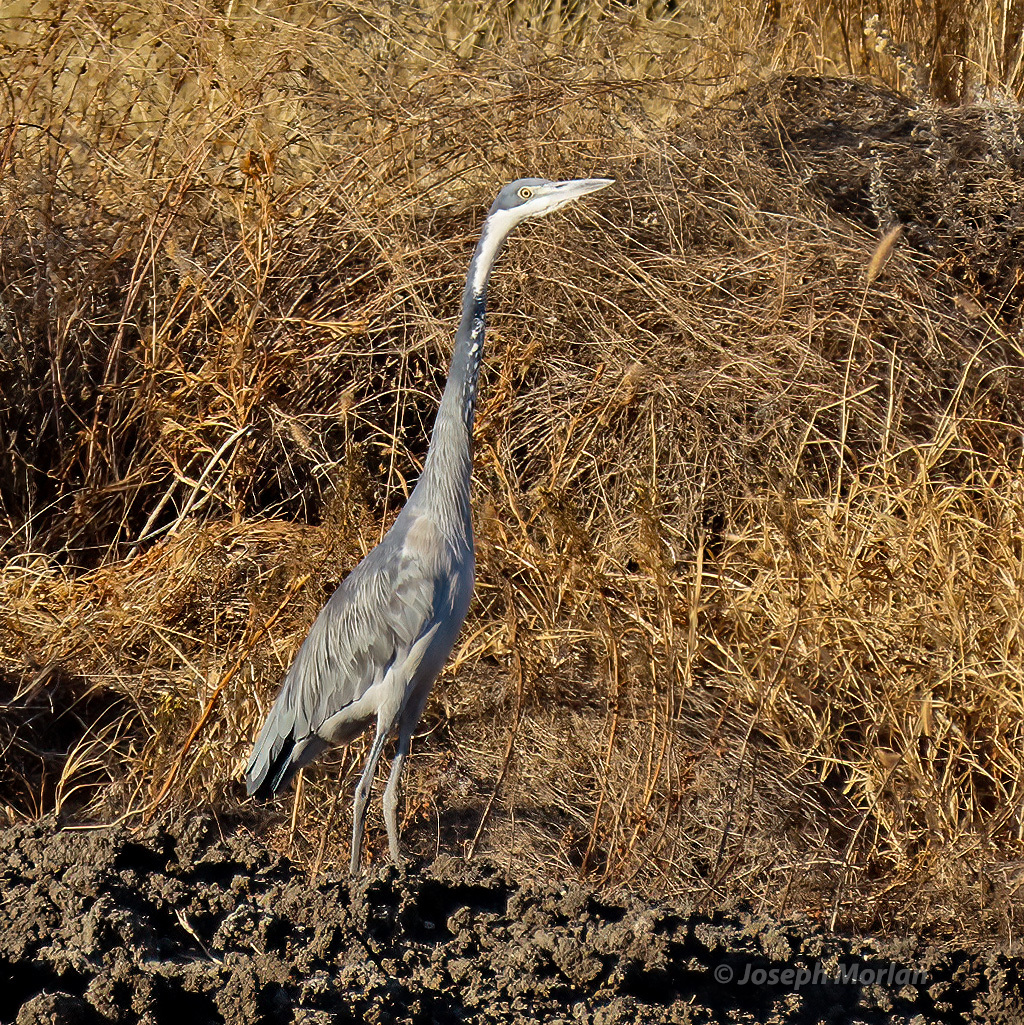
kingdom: Animalia
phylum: Chordata
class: Aves
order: Pelecaniformes
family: Ardeidae
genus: Ardea
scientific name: Ardea melanocephala
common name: Black-headed heron
